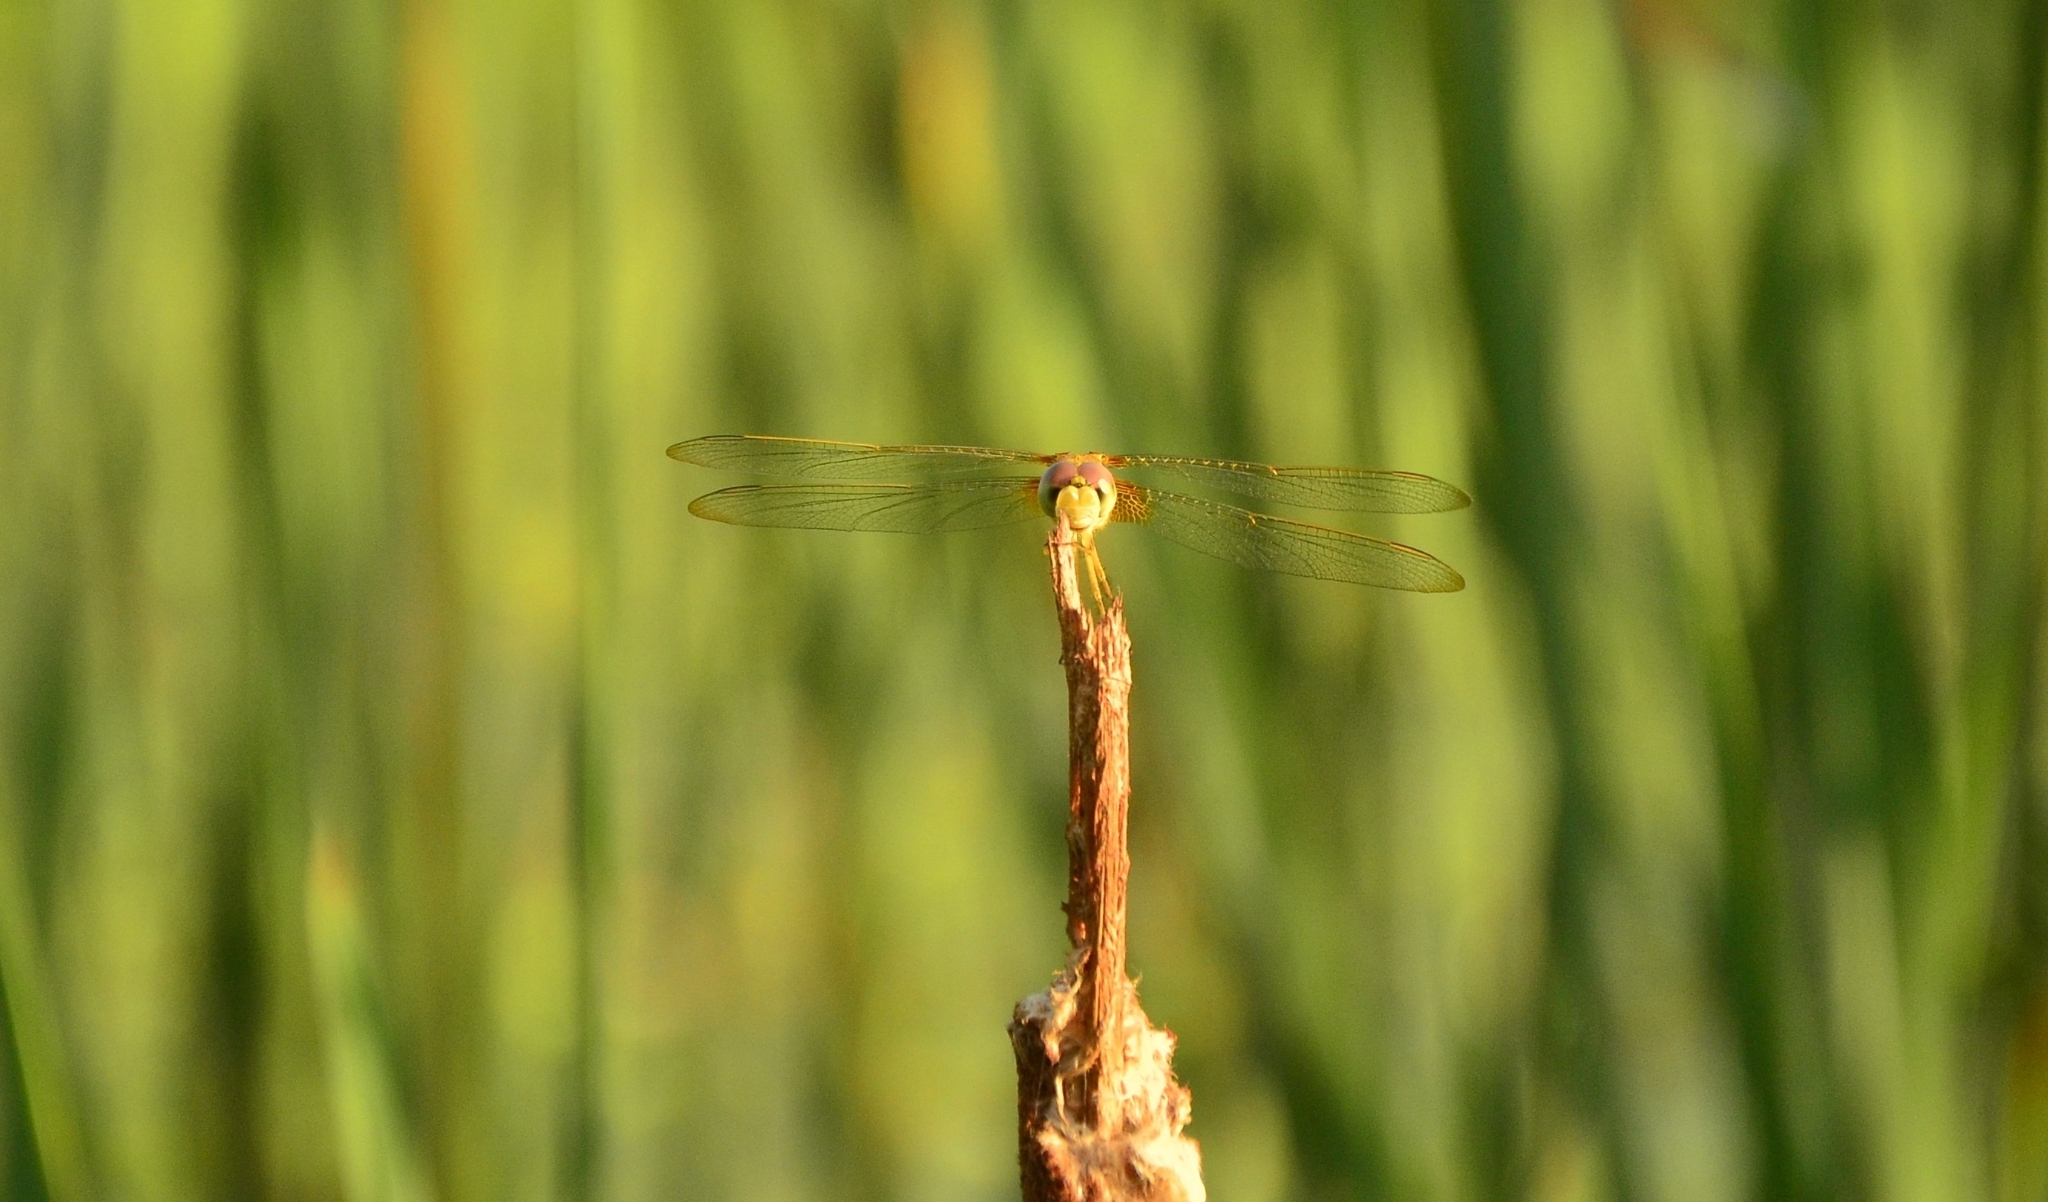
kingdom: Animalia
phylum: Arthropoda
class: Insecta
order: Odonata
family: Libellulidae
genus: Crocothemis
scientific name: Crocothemis servilia
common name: Scarlet skimmer
